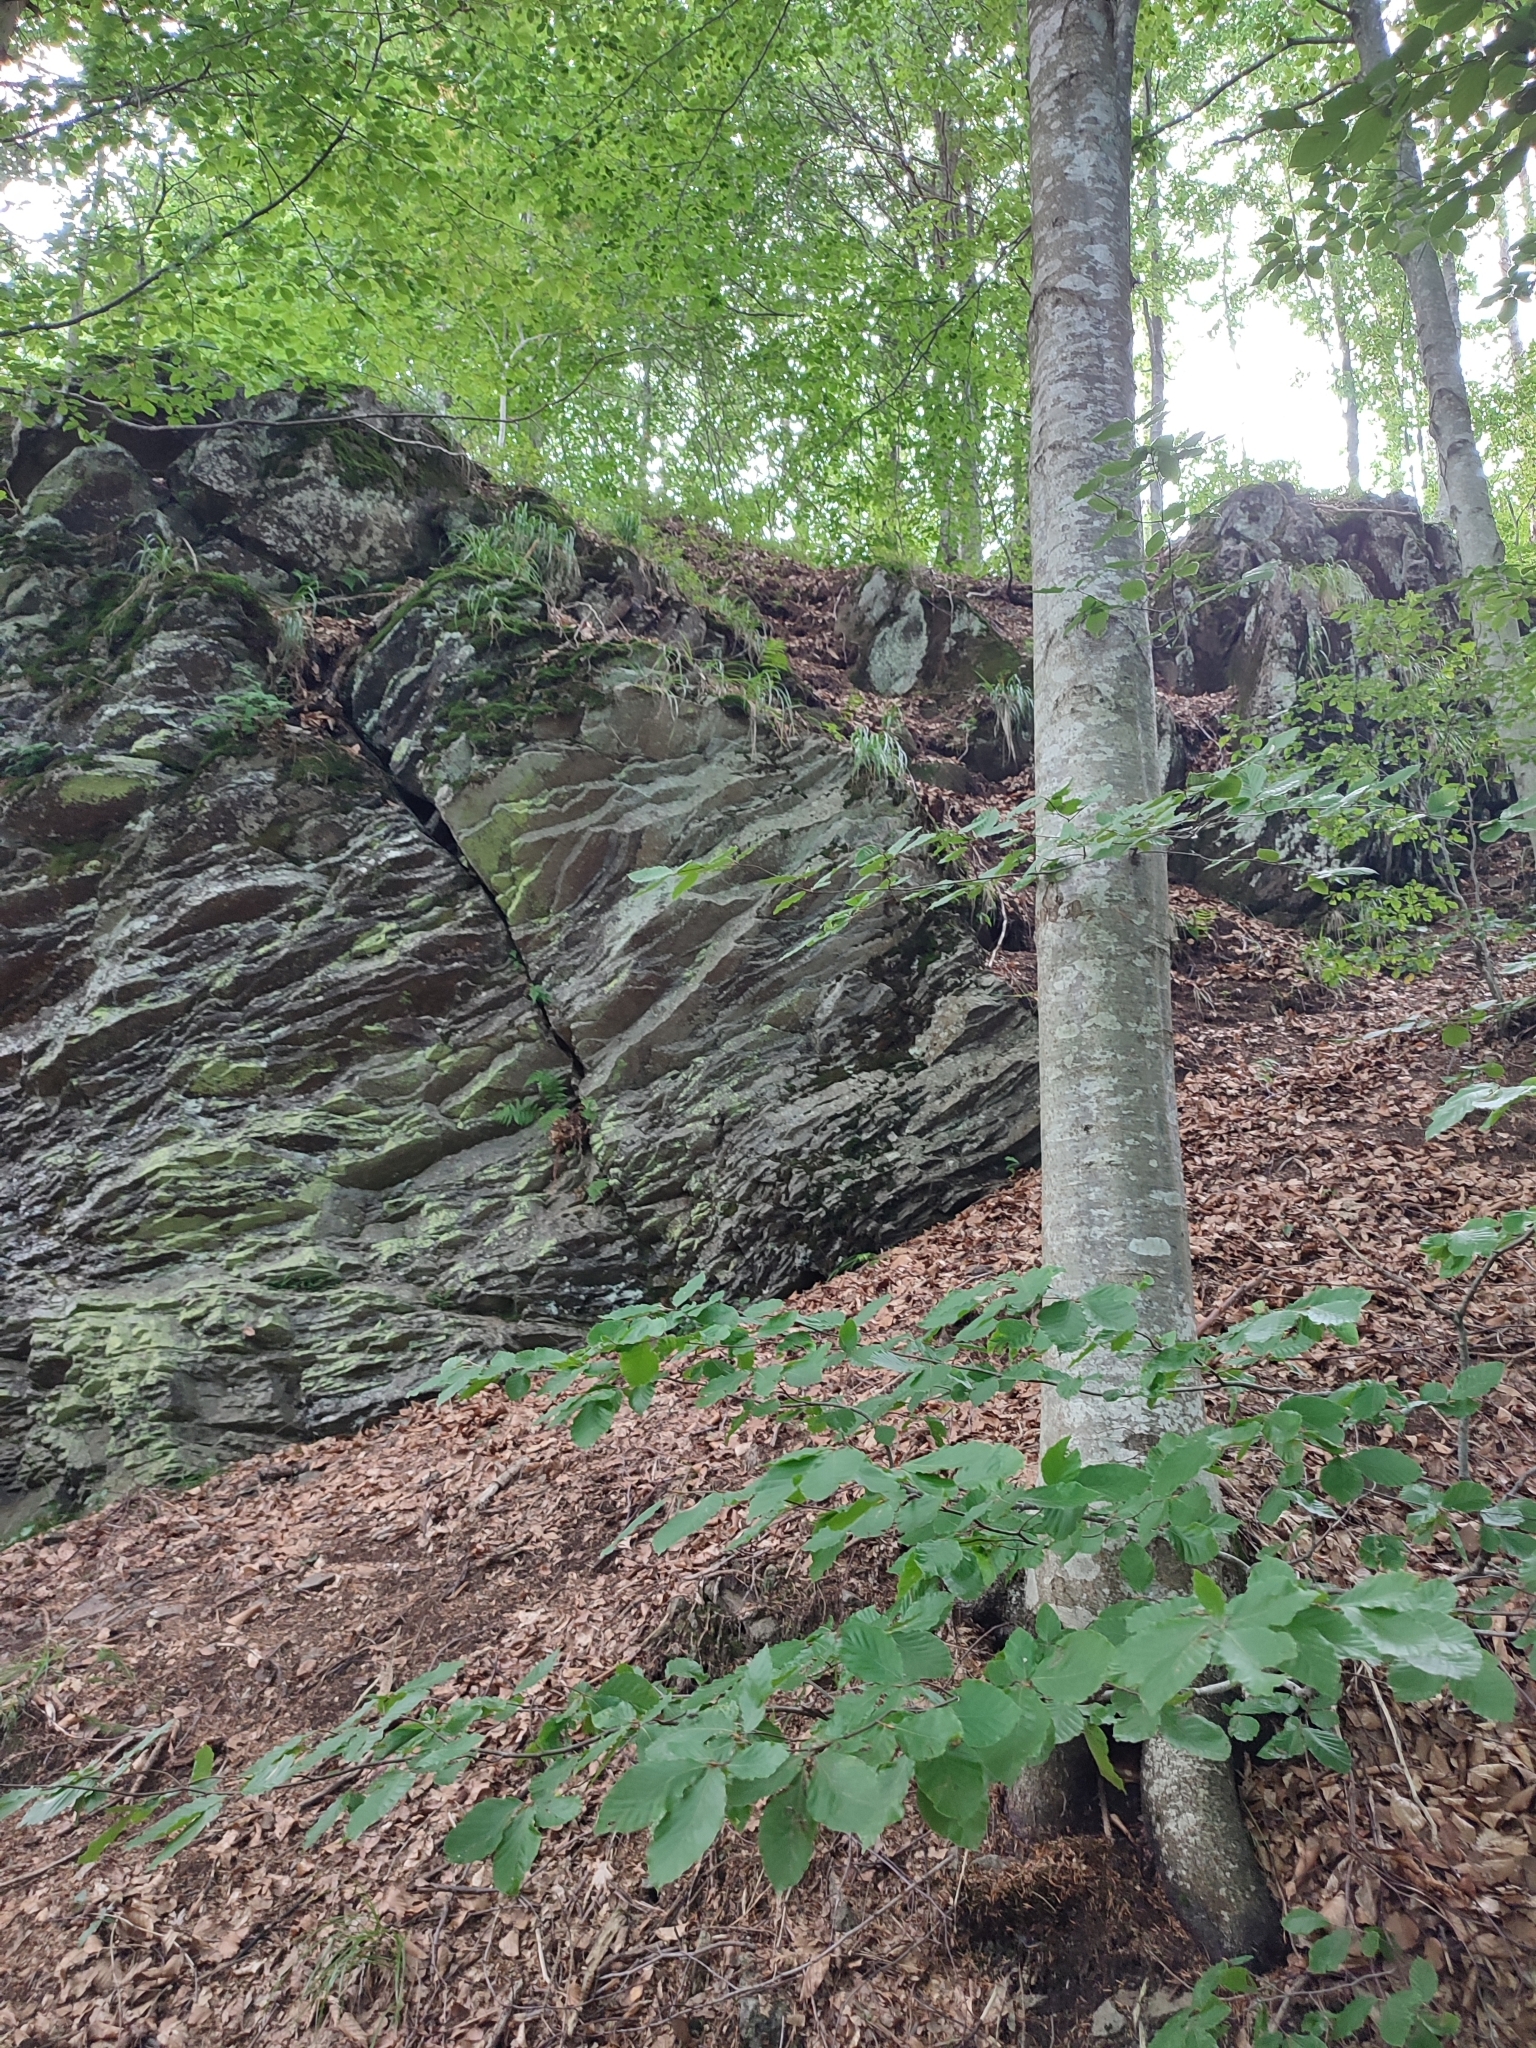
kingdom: Plantae
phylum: Tracheophyta
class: Magnoliopsida
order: Fagales
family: Fagaceae
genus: Fagus
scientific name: Fagus sylvatica
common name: Beech
